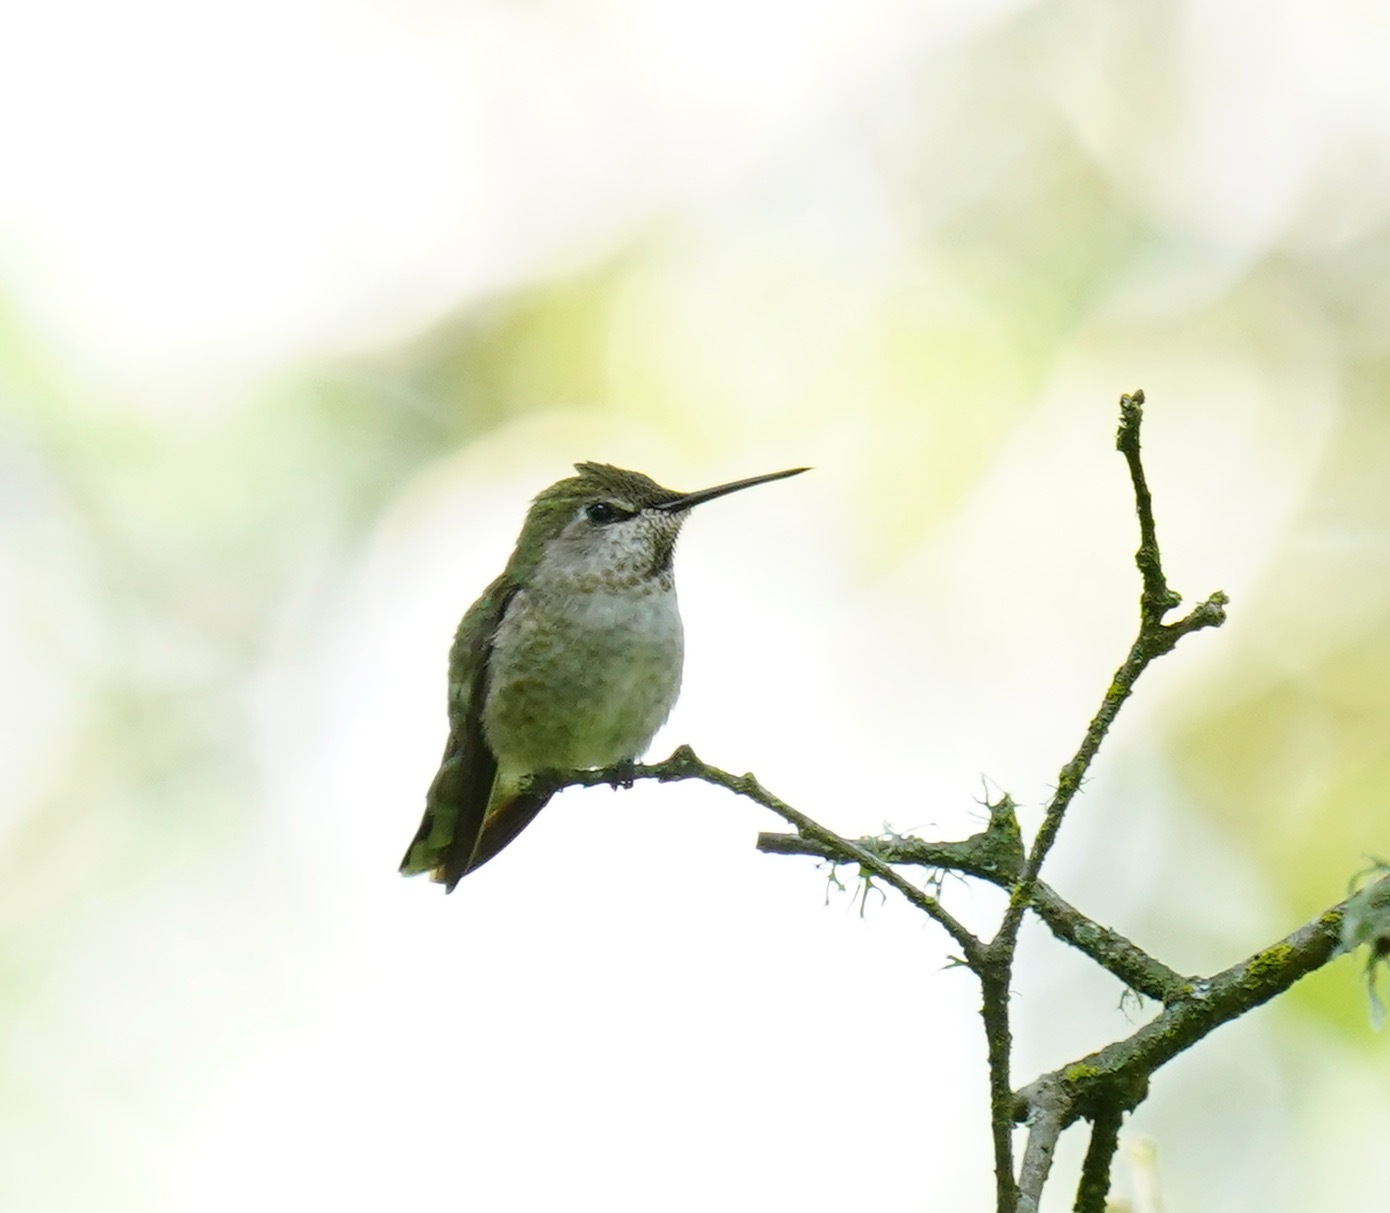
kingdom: Animalia
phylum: Chordata
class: Aves
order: Apodiformes
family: Trochilidae
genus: Calypte
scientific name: Calypte anna
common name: Anna's hummingbird
